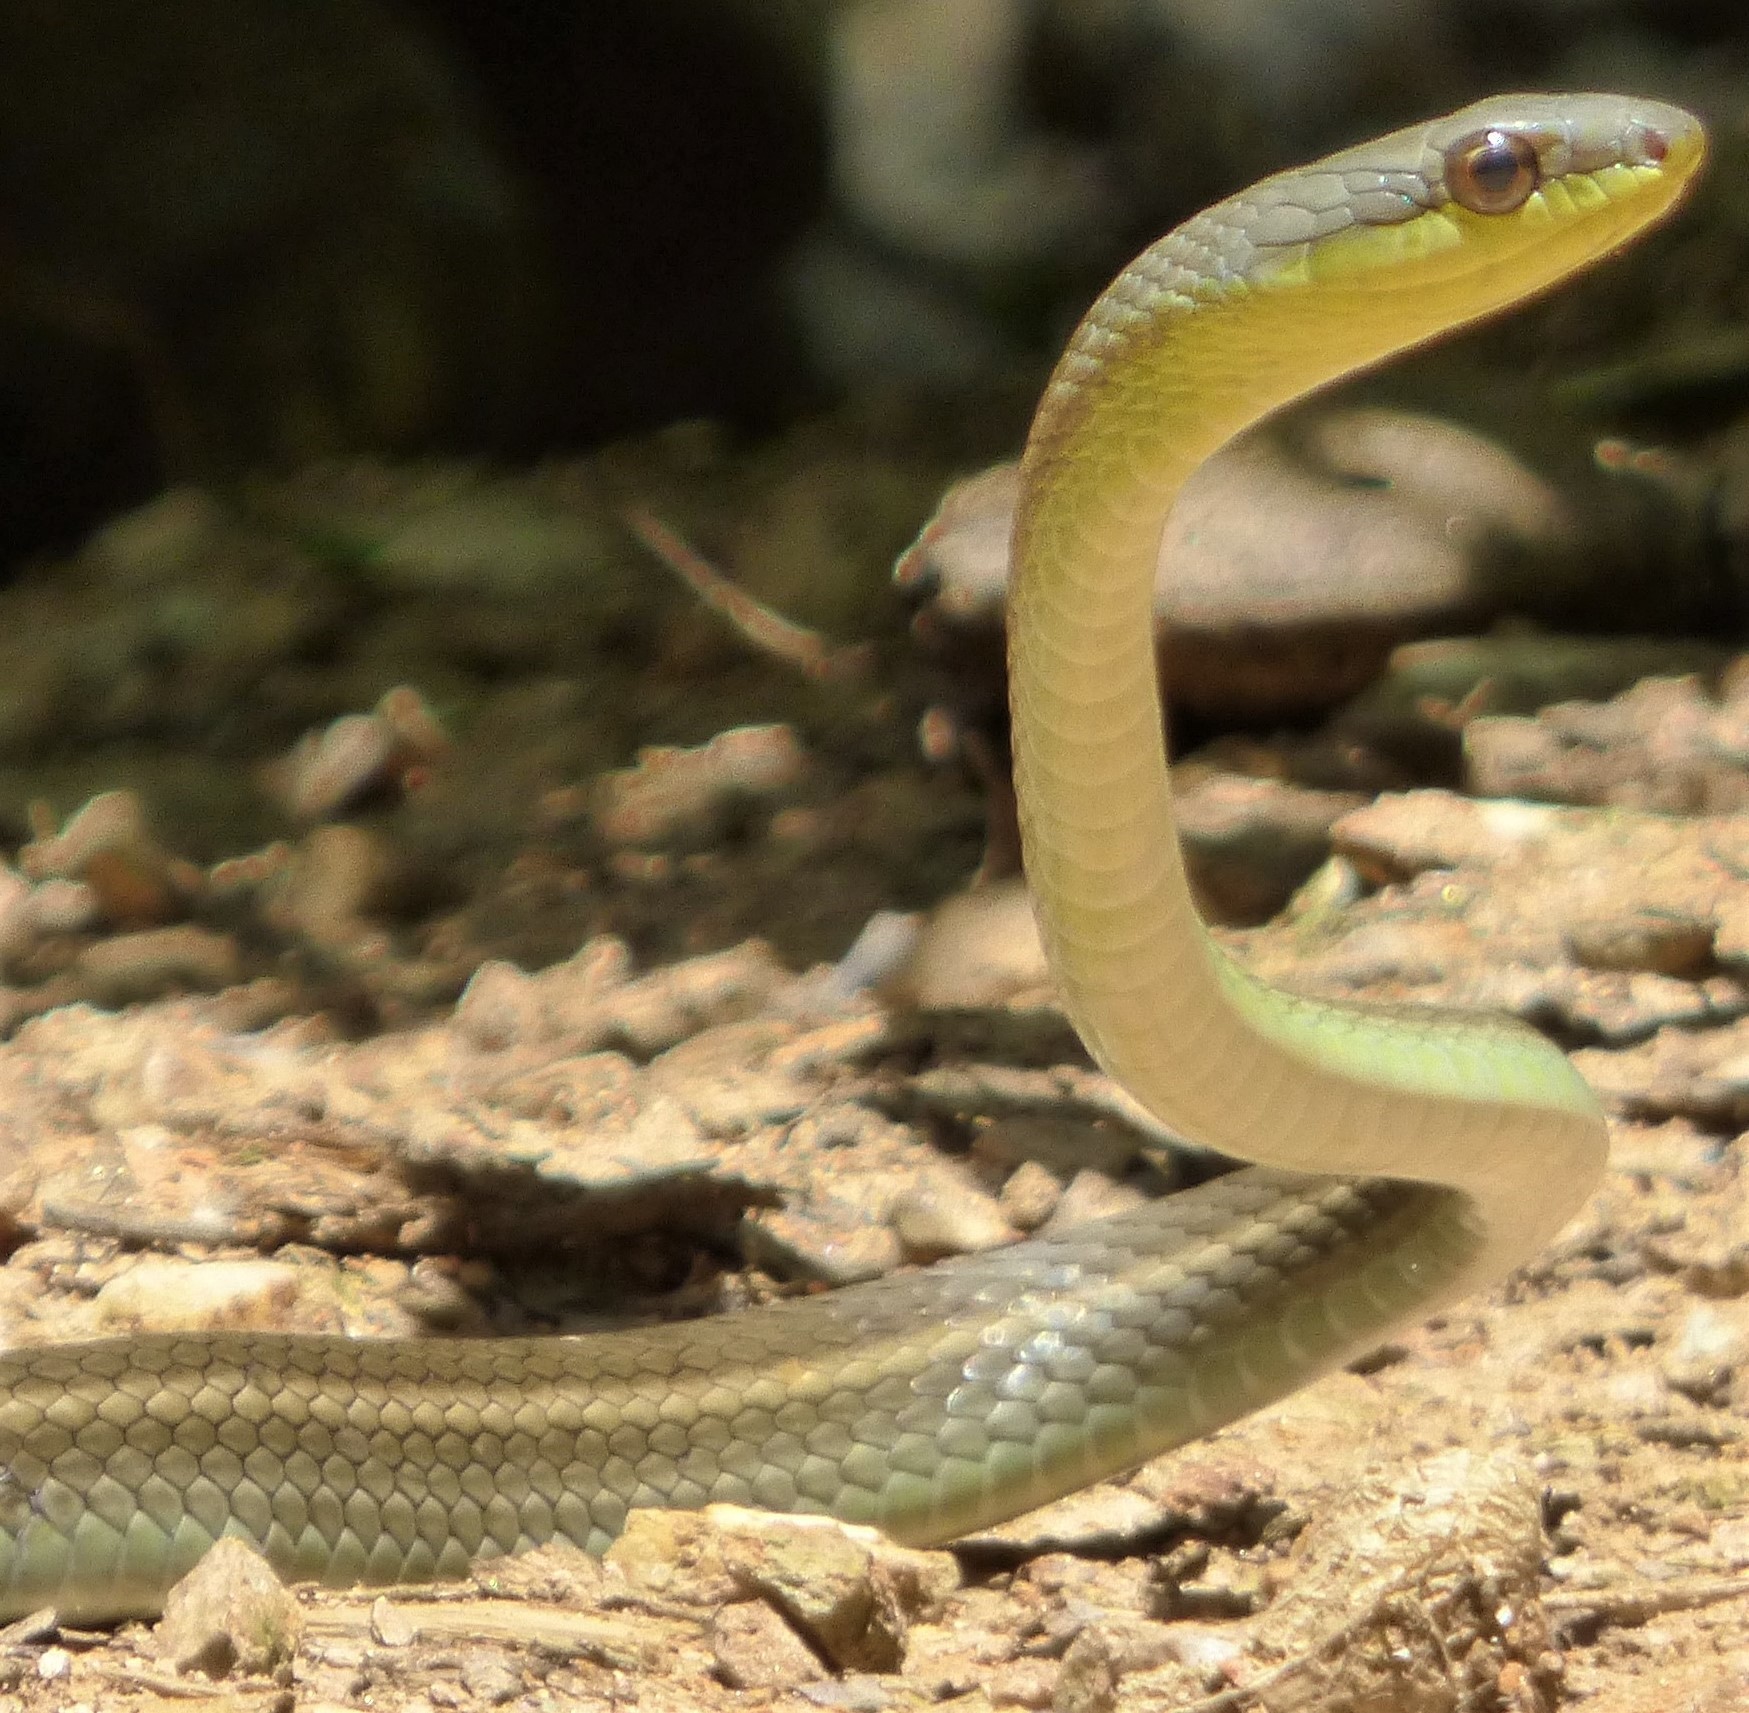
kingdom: Animalia
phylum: Chordata
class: Squamata
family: Colubridae
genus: Mastigodryas
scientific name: Mastigodryas boddaerti
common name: Boddaert's tropical racer
